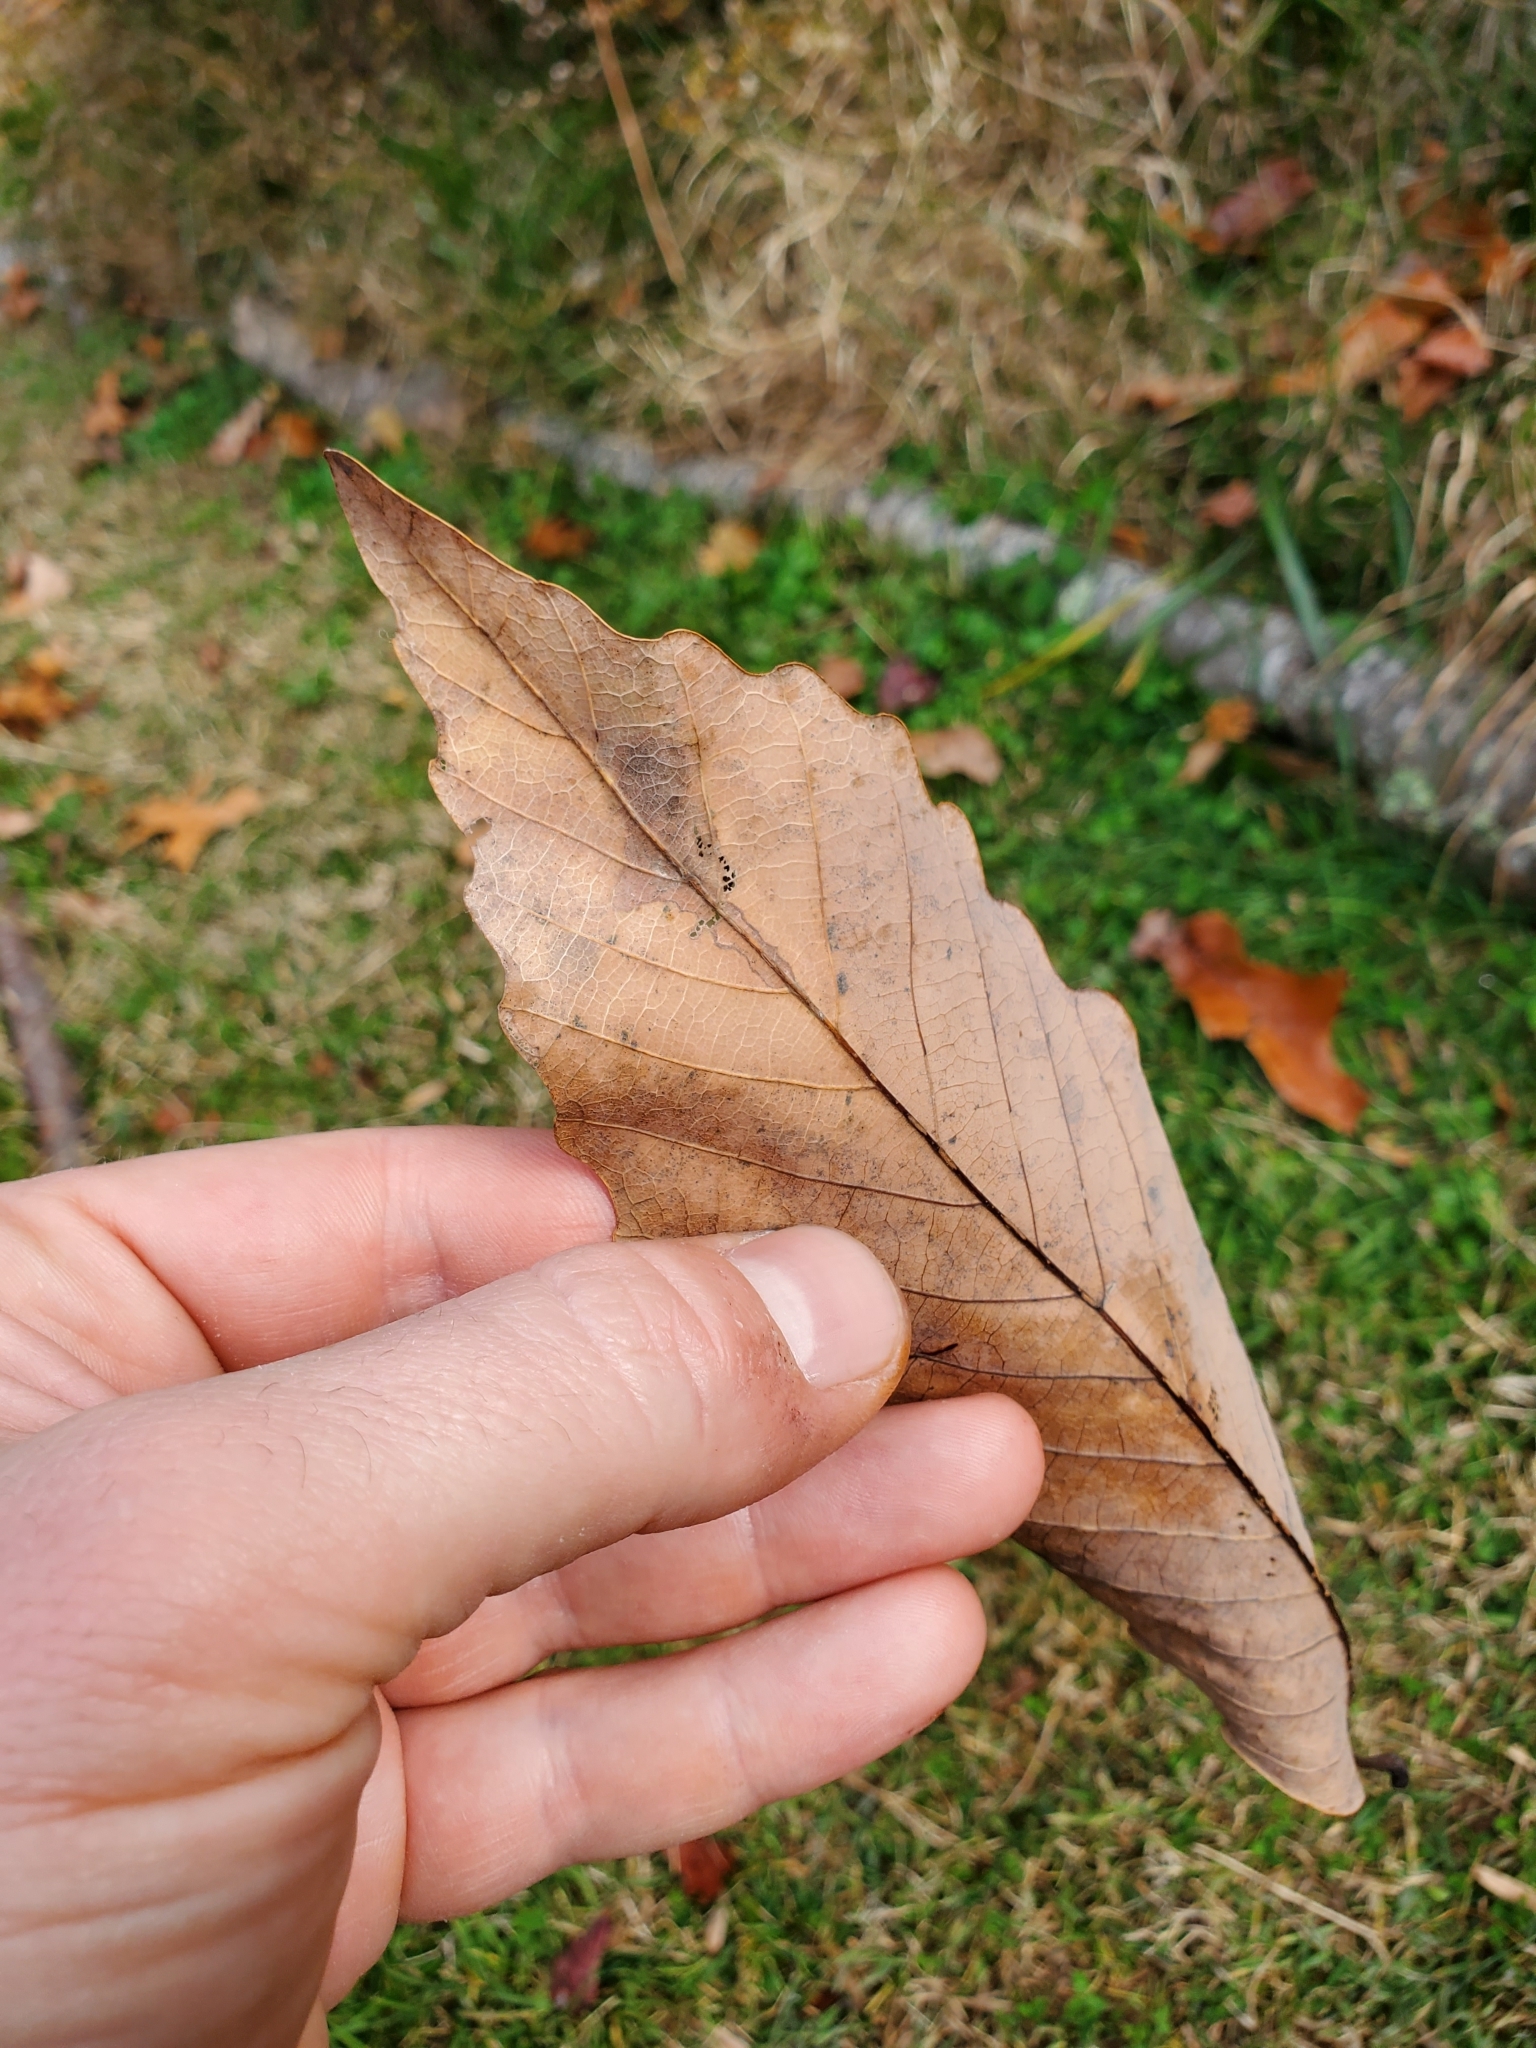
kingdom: Animalia
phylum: Arthropoda
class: Insecta
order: Hymenoptera
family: Cynipidae
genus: Acraspis
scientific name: Acraspis quercushirta
